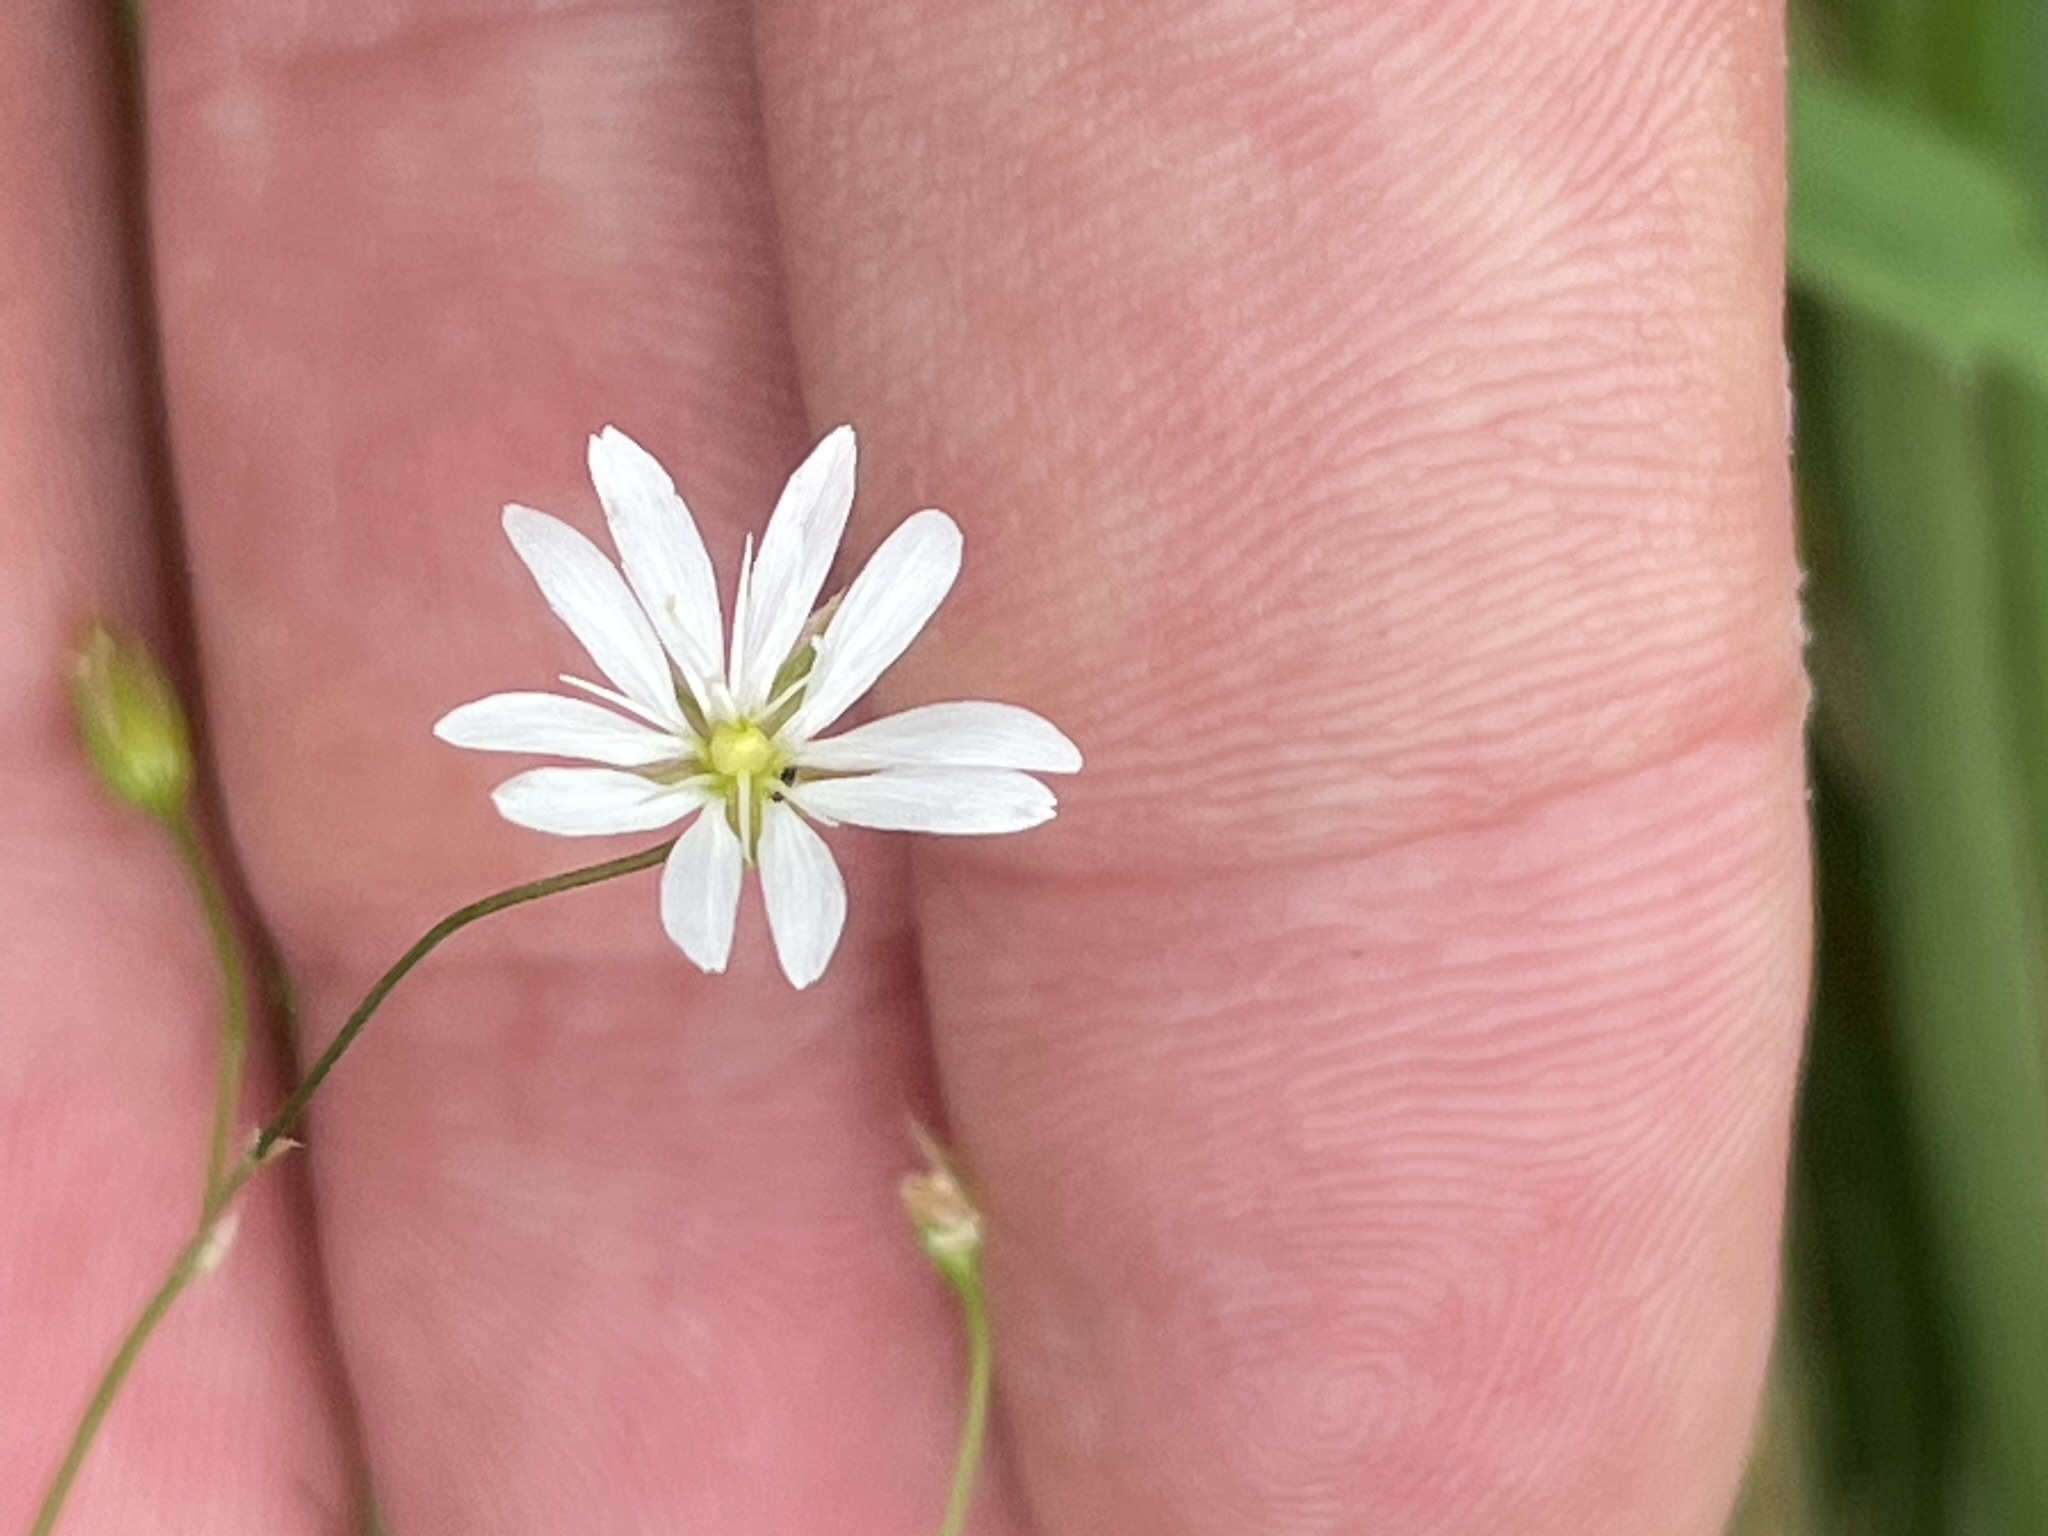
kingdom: Plantae
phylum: Tracheophyta
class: Magnoliopsida
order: Caryophyllales
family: Caryophyllaceae
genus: Stellaria
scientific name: Stellaria graminea
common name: Grass-like starwort
